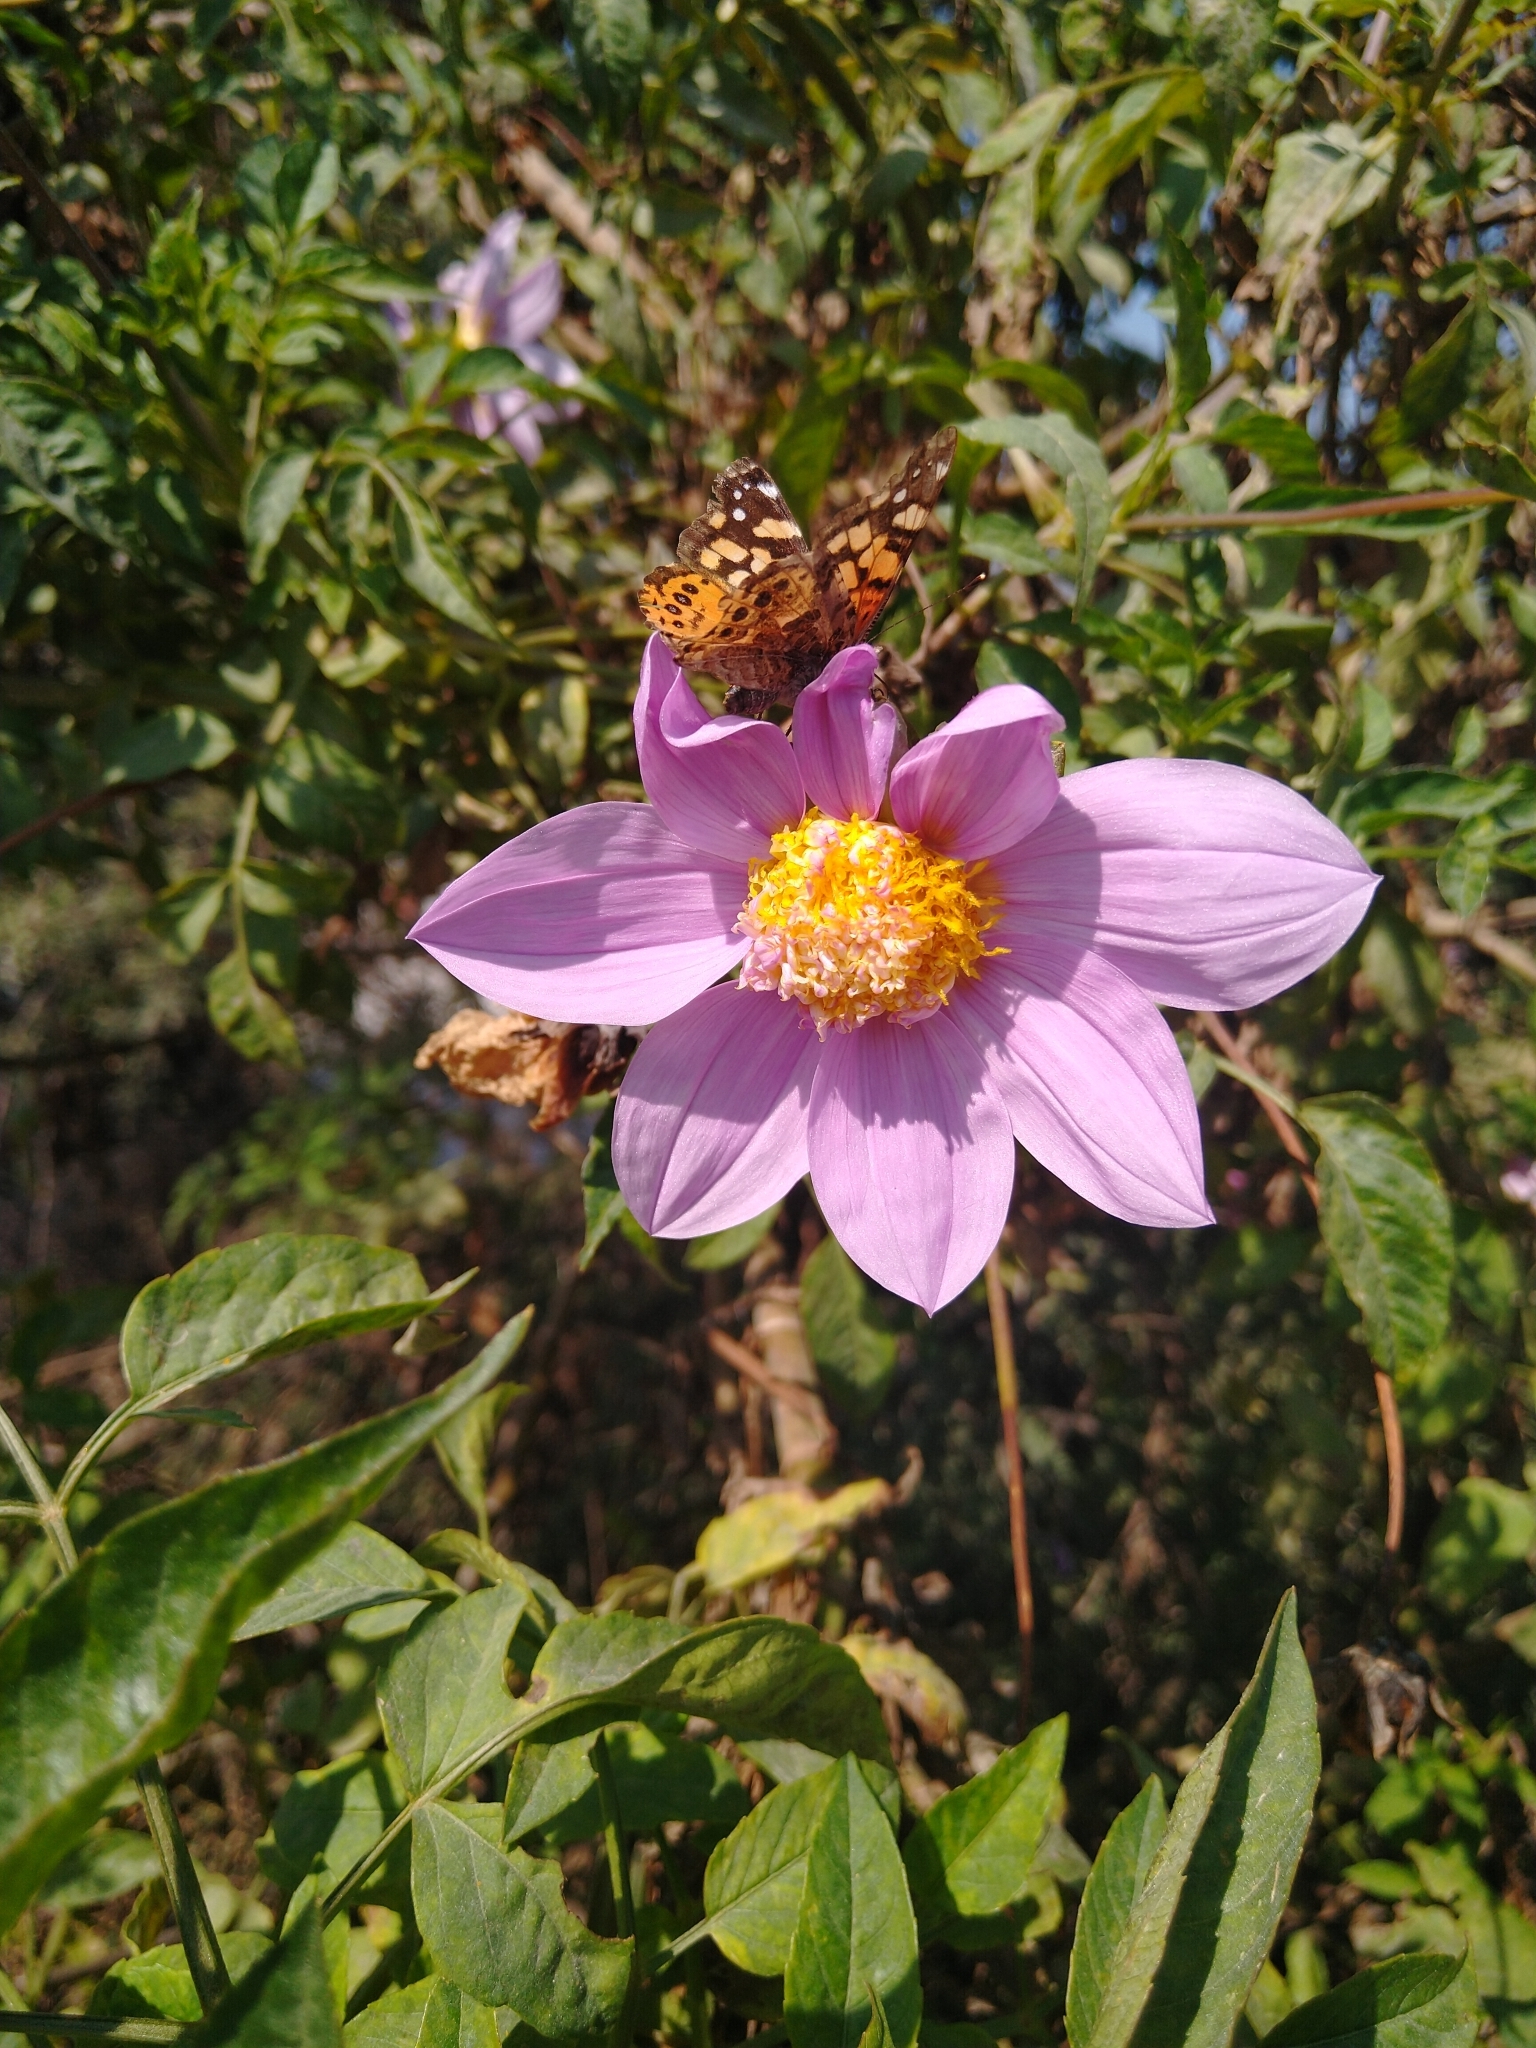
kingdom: Plantae
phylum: Tracheophyta
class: Magnoliopsida
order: Asterales
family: Asteraceae
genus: Dahlia
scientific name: Dahlia imperialis
